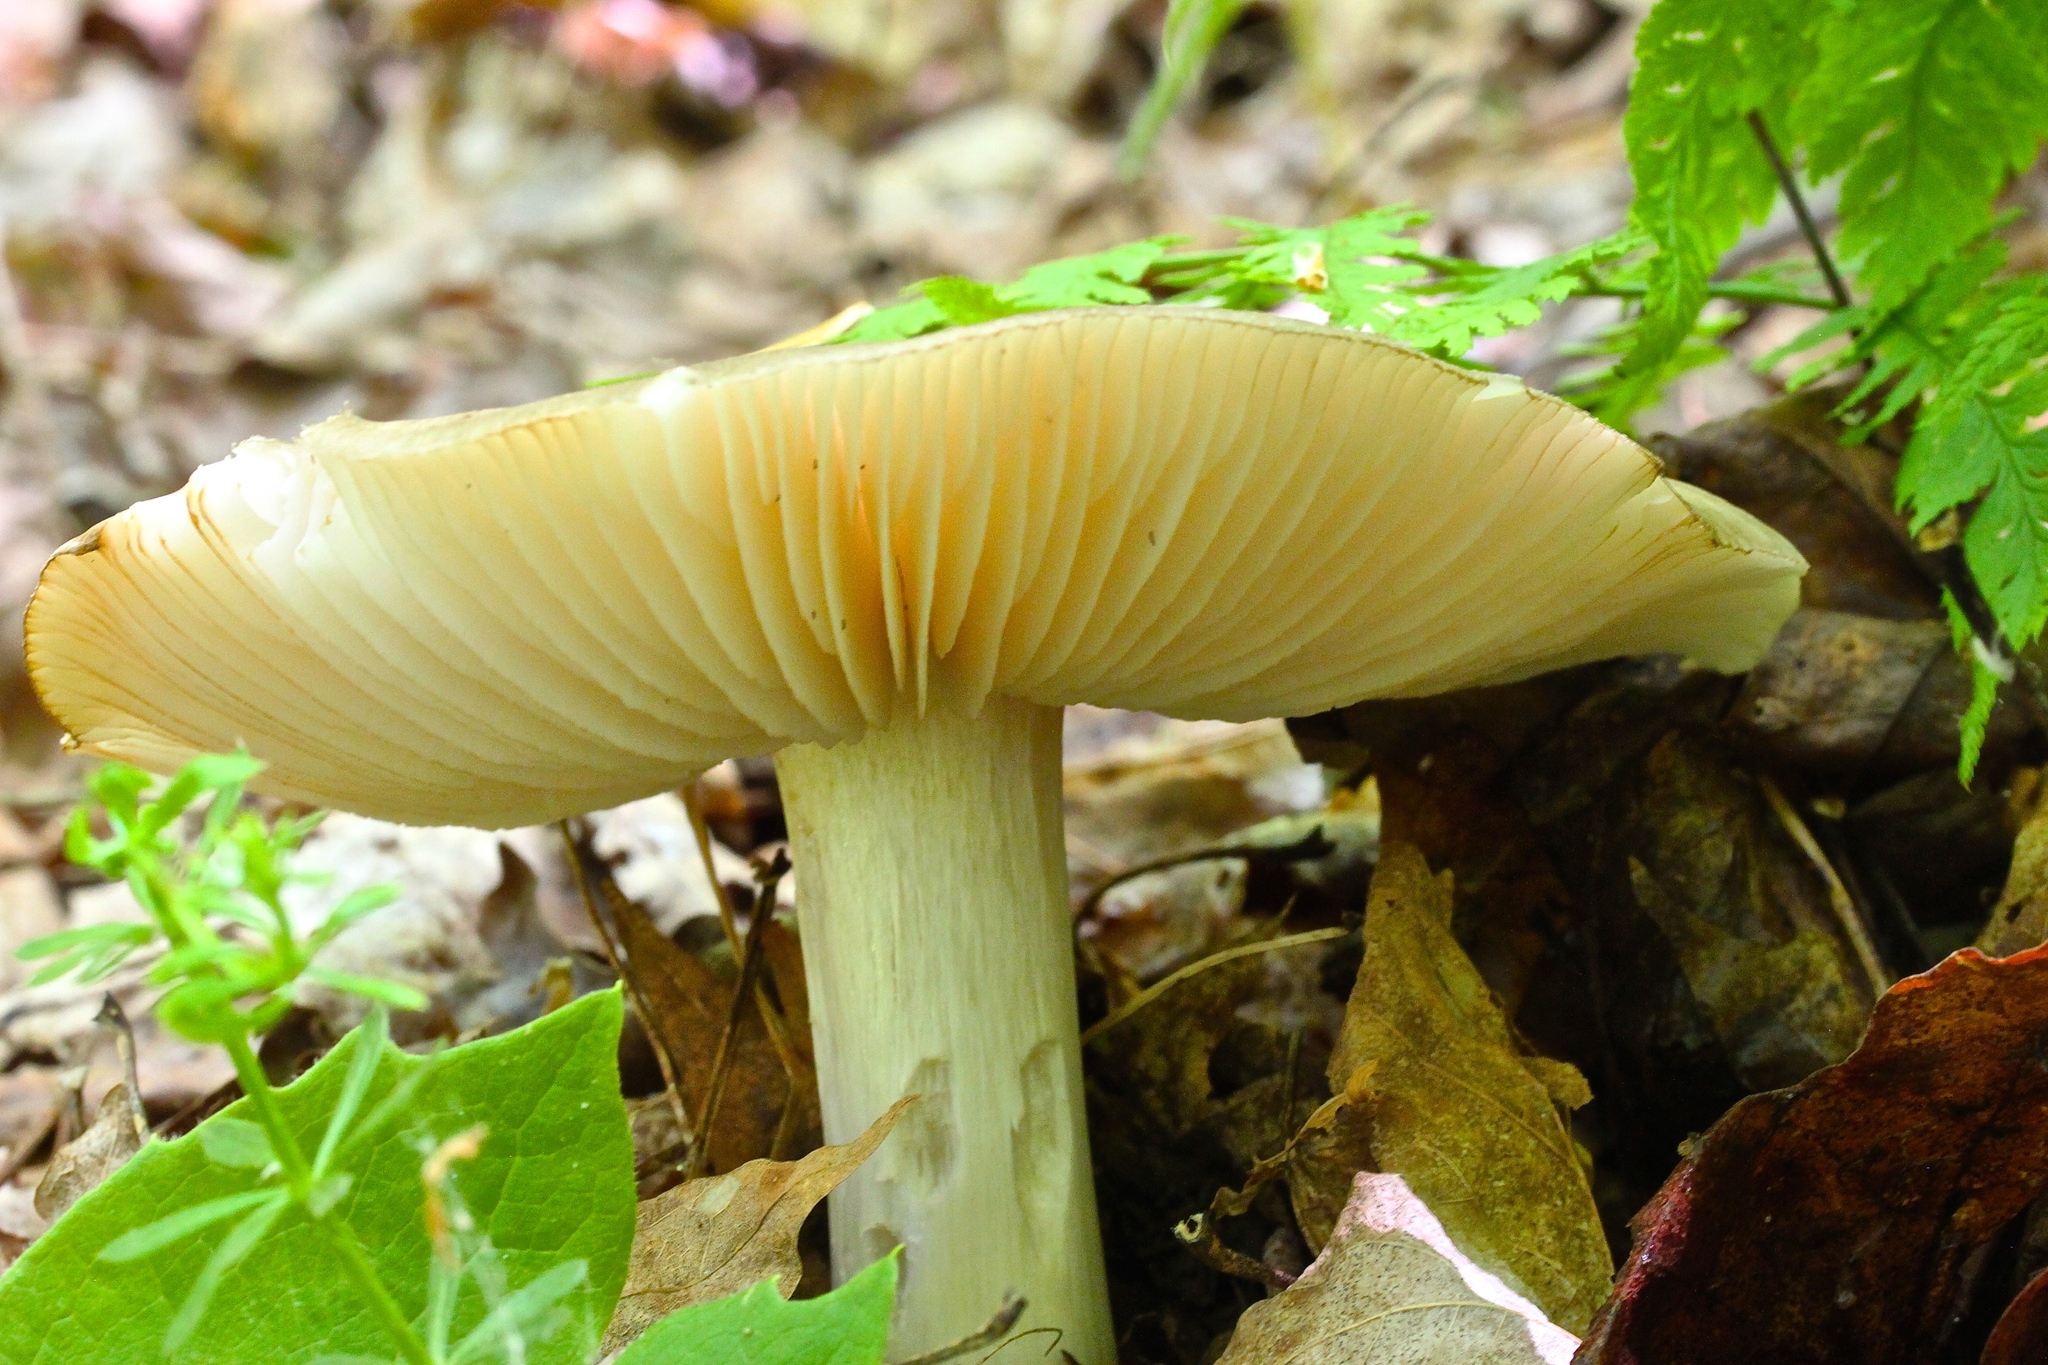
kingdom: Fungi
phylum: Basidiomycota
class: Agaricomycetes
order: Agaricales
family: Tricholomataceae
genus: Megacollybia
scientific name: Megacollybia rodmanii
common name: Eastern american platterful mushroom
